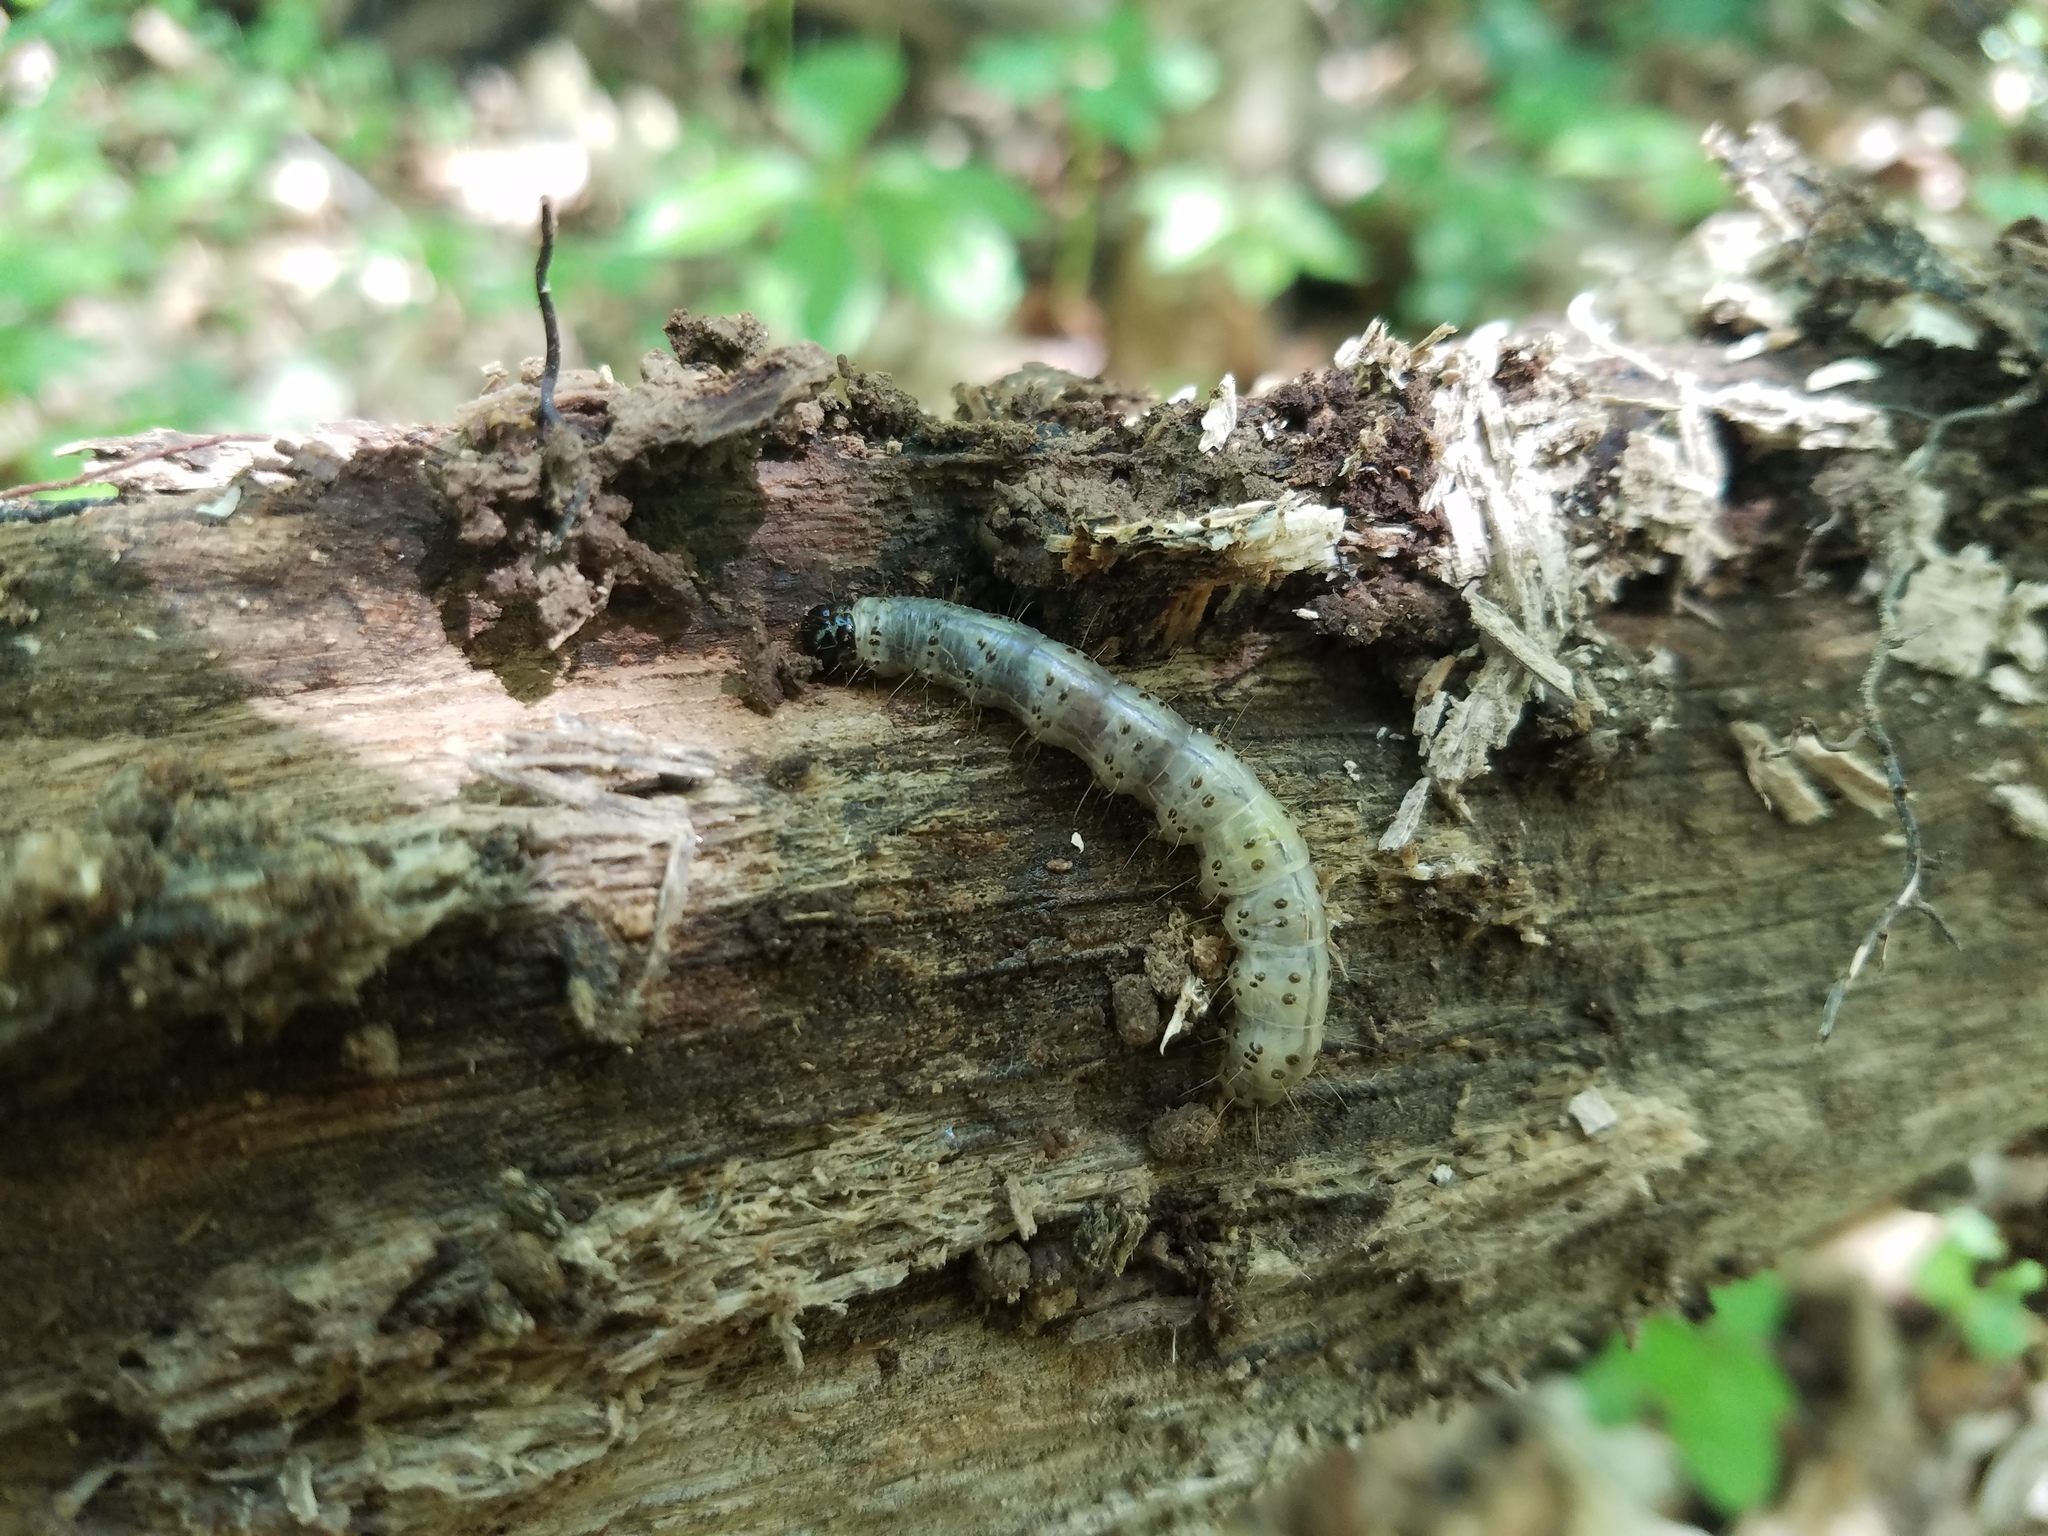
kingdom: Animalia
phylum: Arthropoda
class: Insecta
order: Lepidoptera
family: Erebidae
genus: Scolecocampa
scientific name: Scolecocampa liburna
